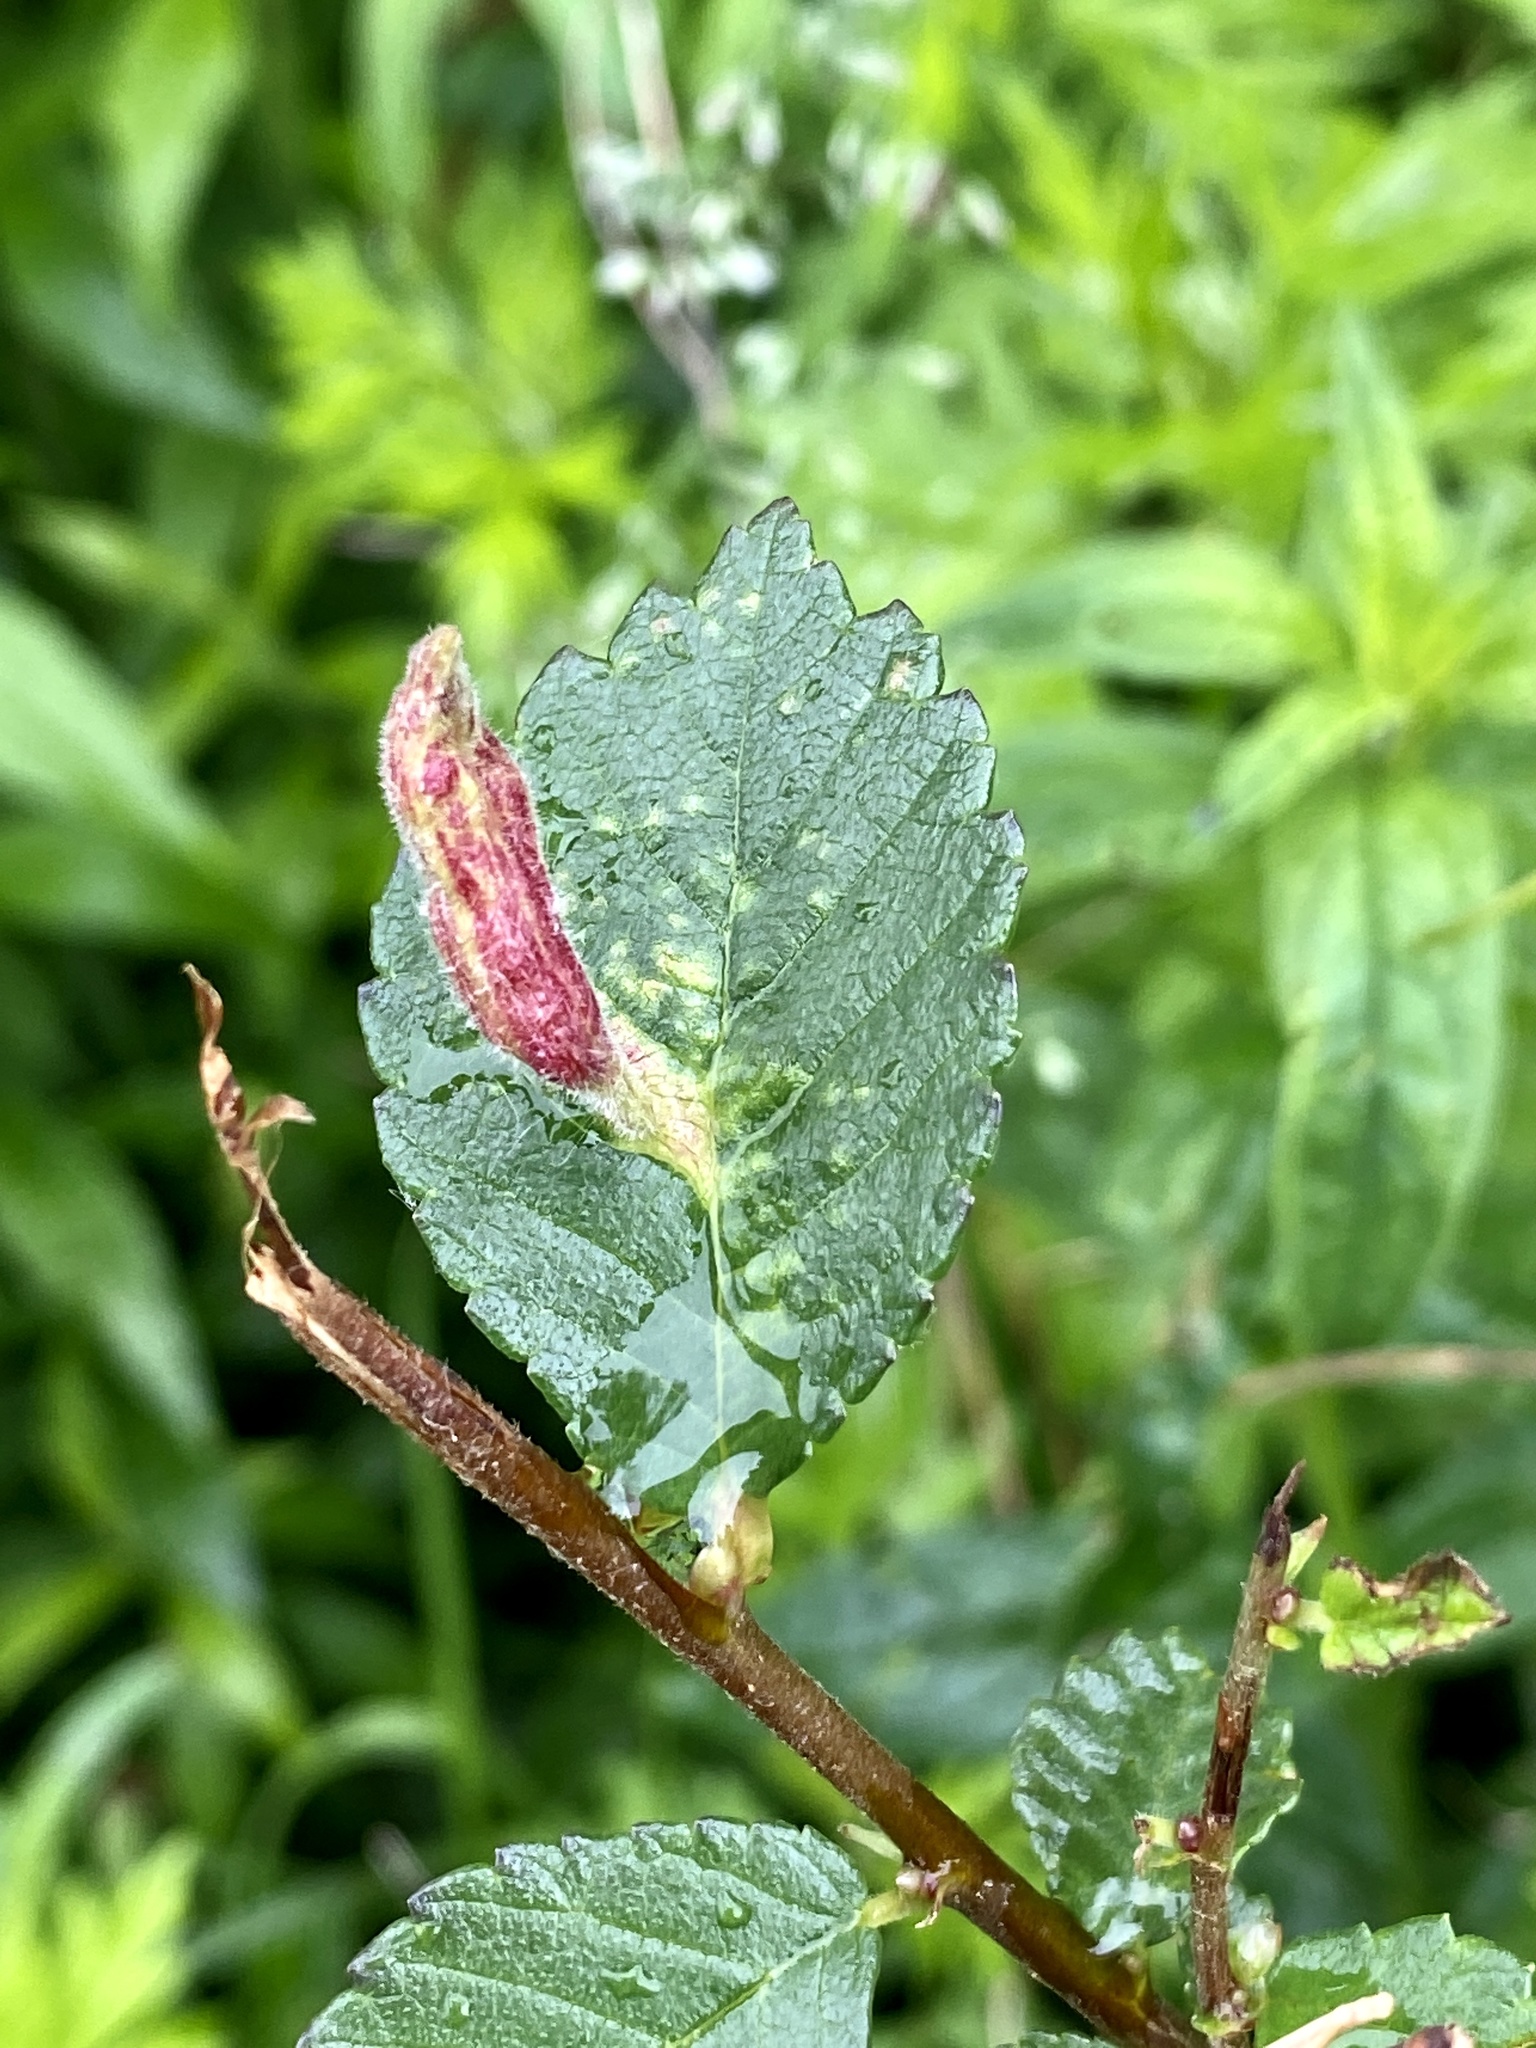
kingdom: Animalia
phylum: Arthropoda
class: Insecta
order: Hemiptera
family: Aphididae
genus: Tetraneura
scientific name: Tetraneura nigriabdominalis
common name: Aphid
